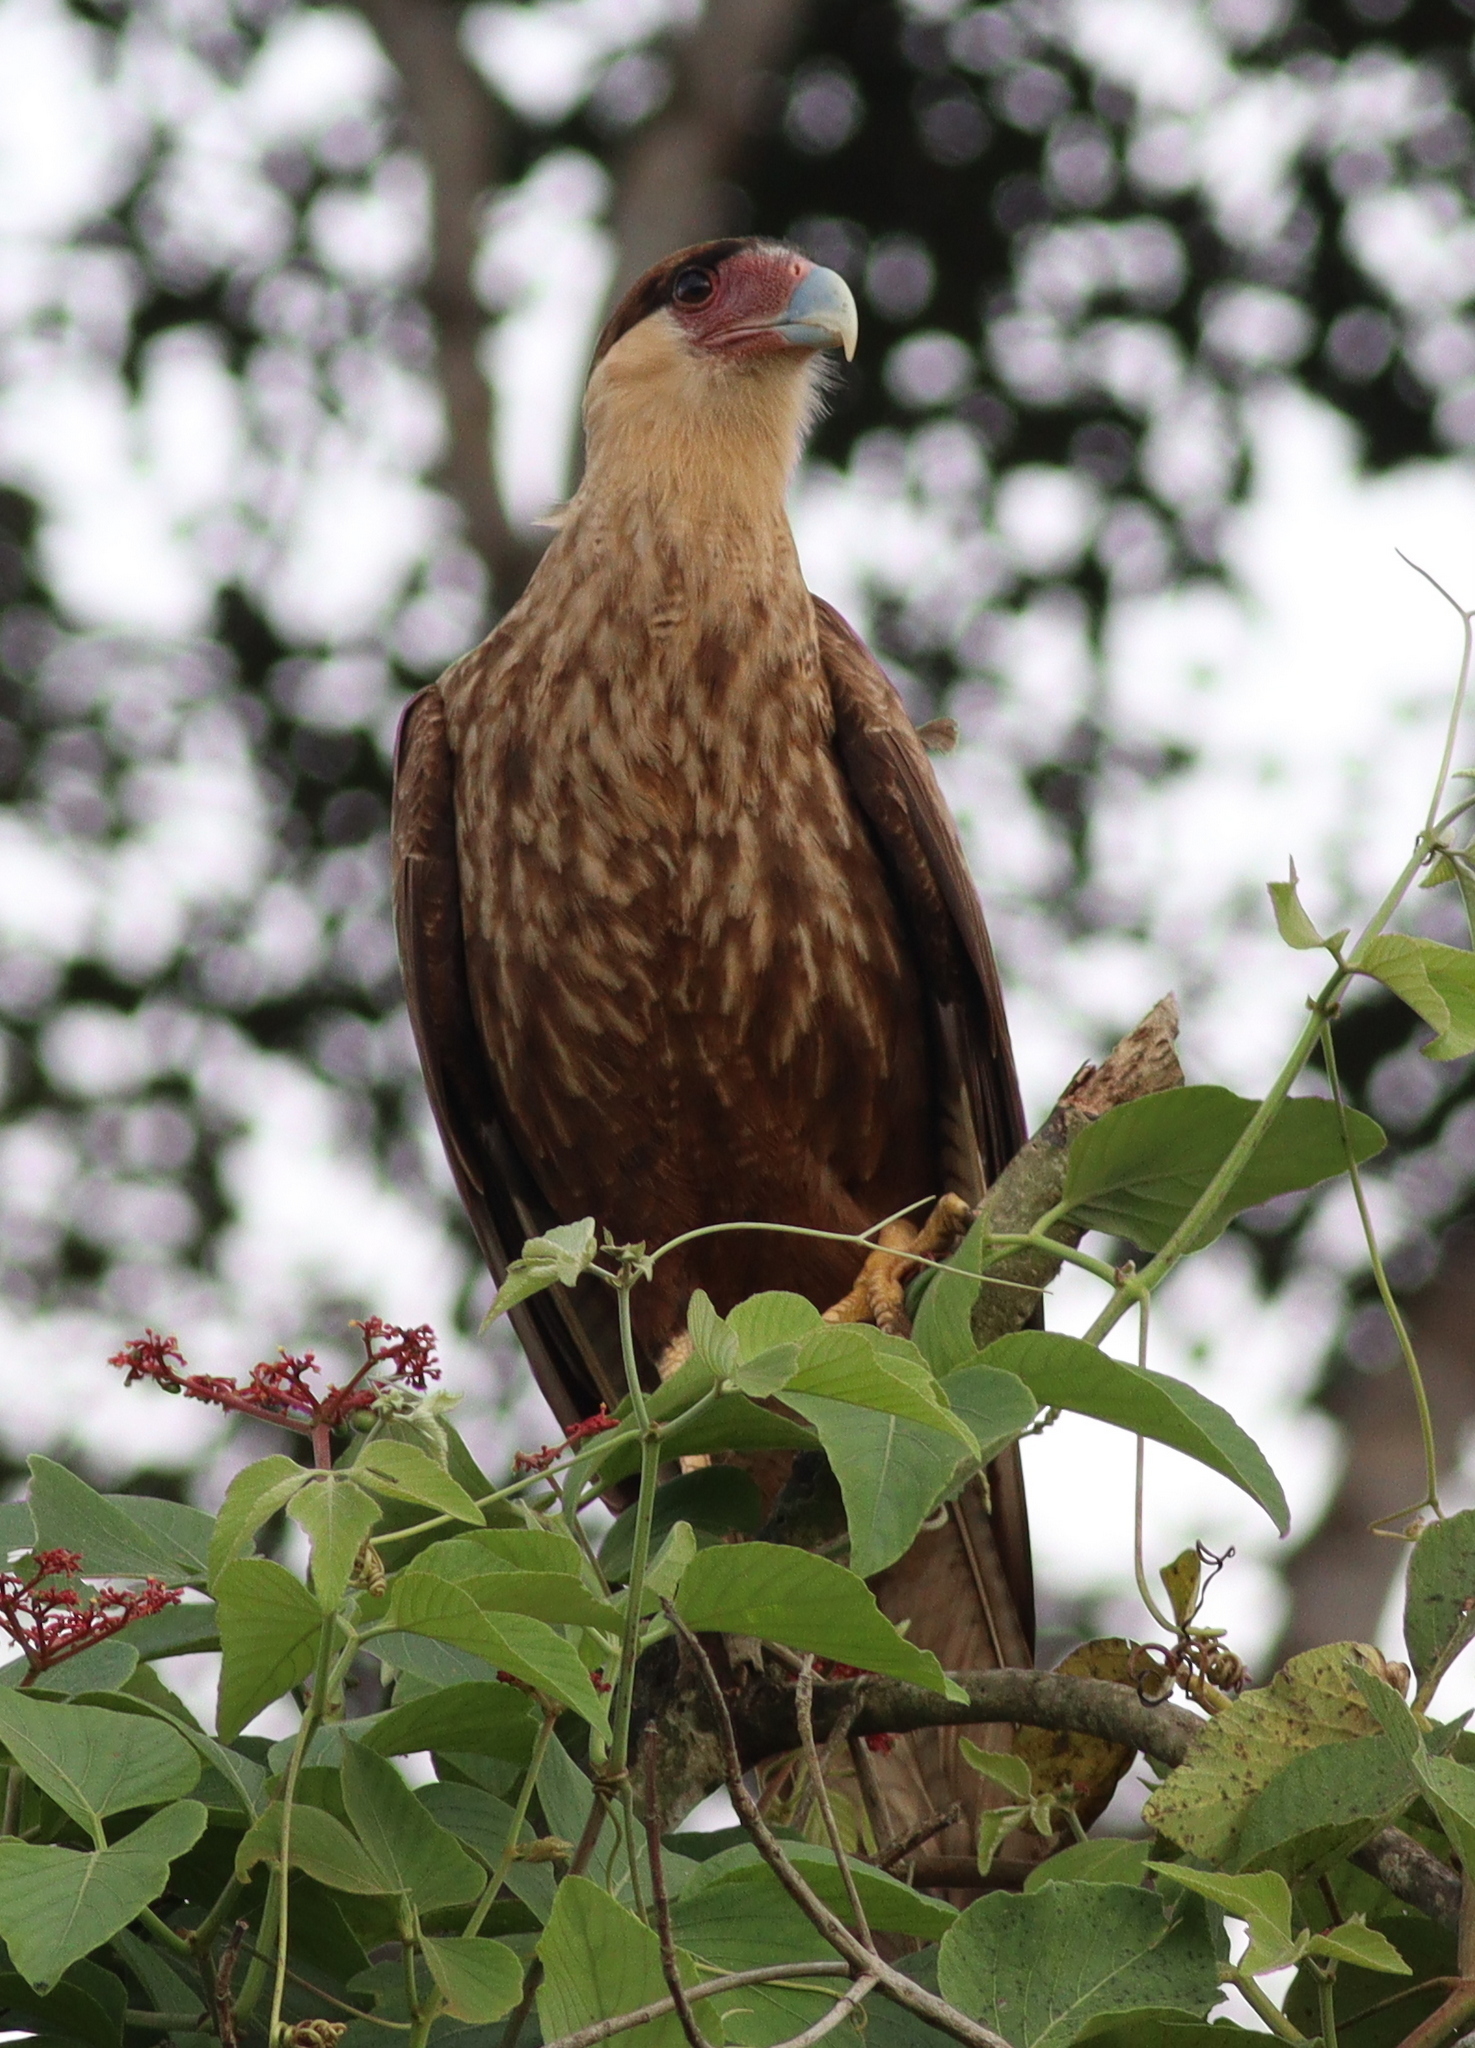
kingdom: Animalia
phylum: Chordata
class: Aves
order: Falconiformes
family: Falconidae
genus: Caracara
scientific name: Caracara plancus
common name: Southern caracara
